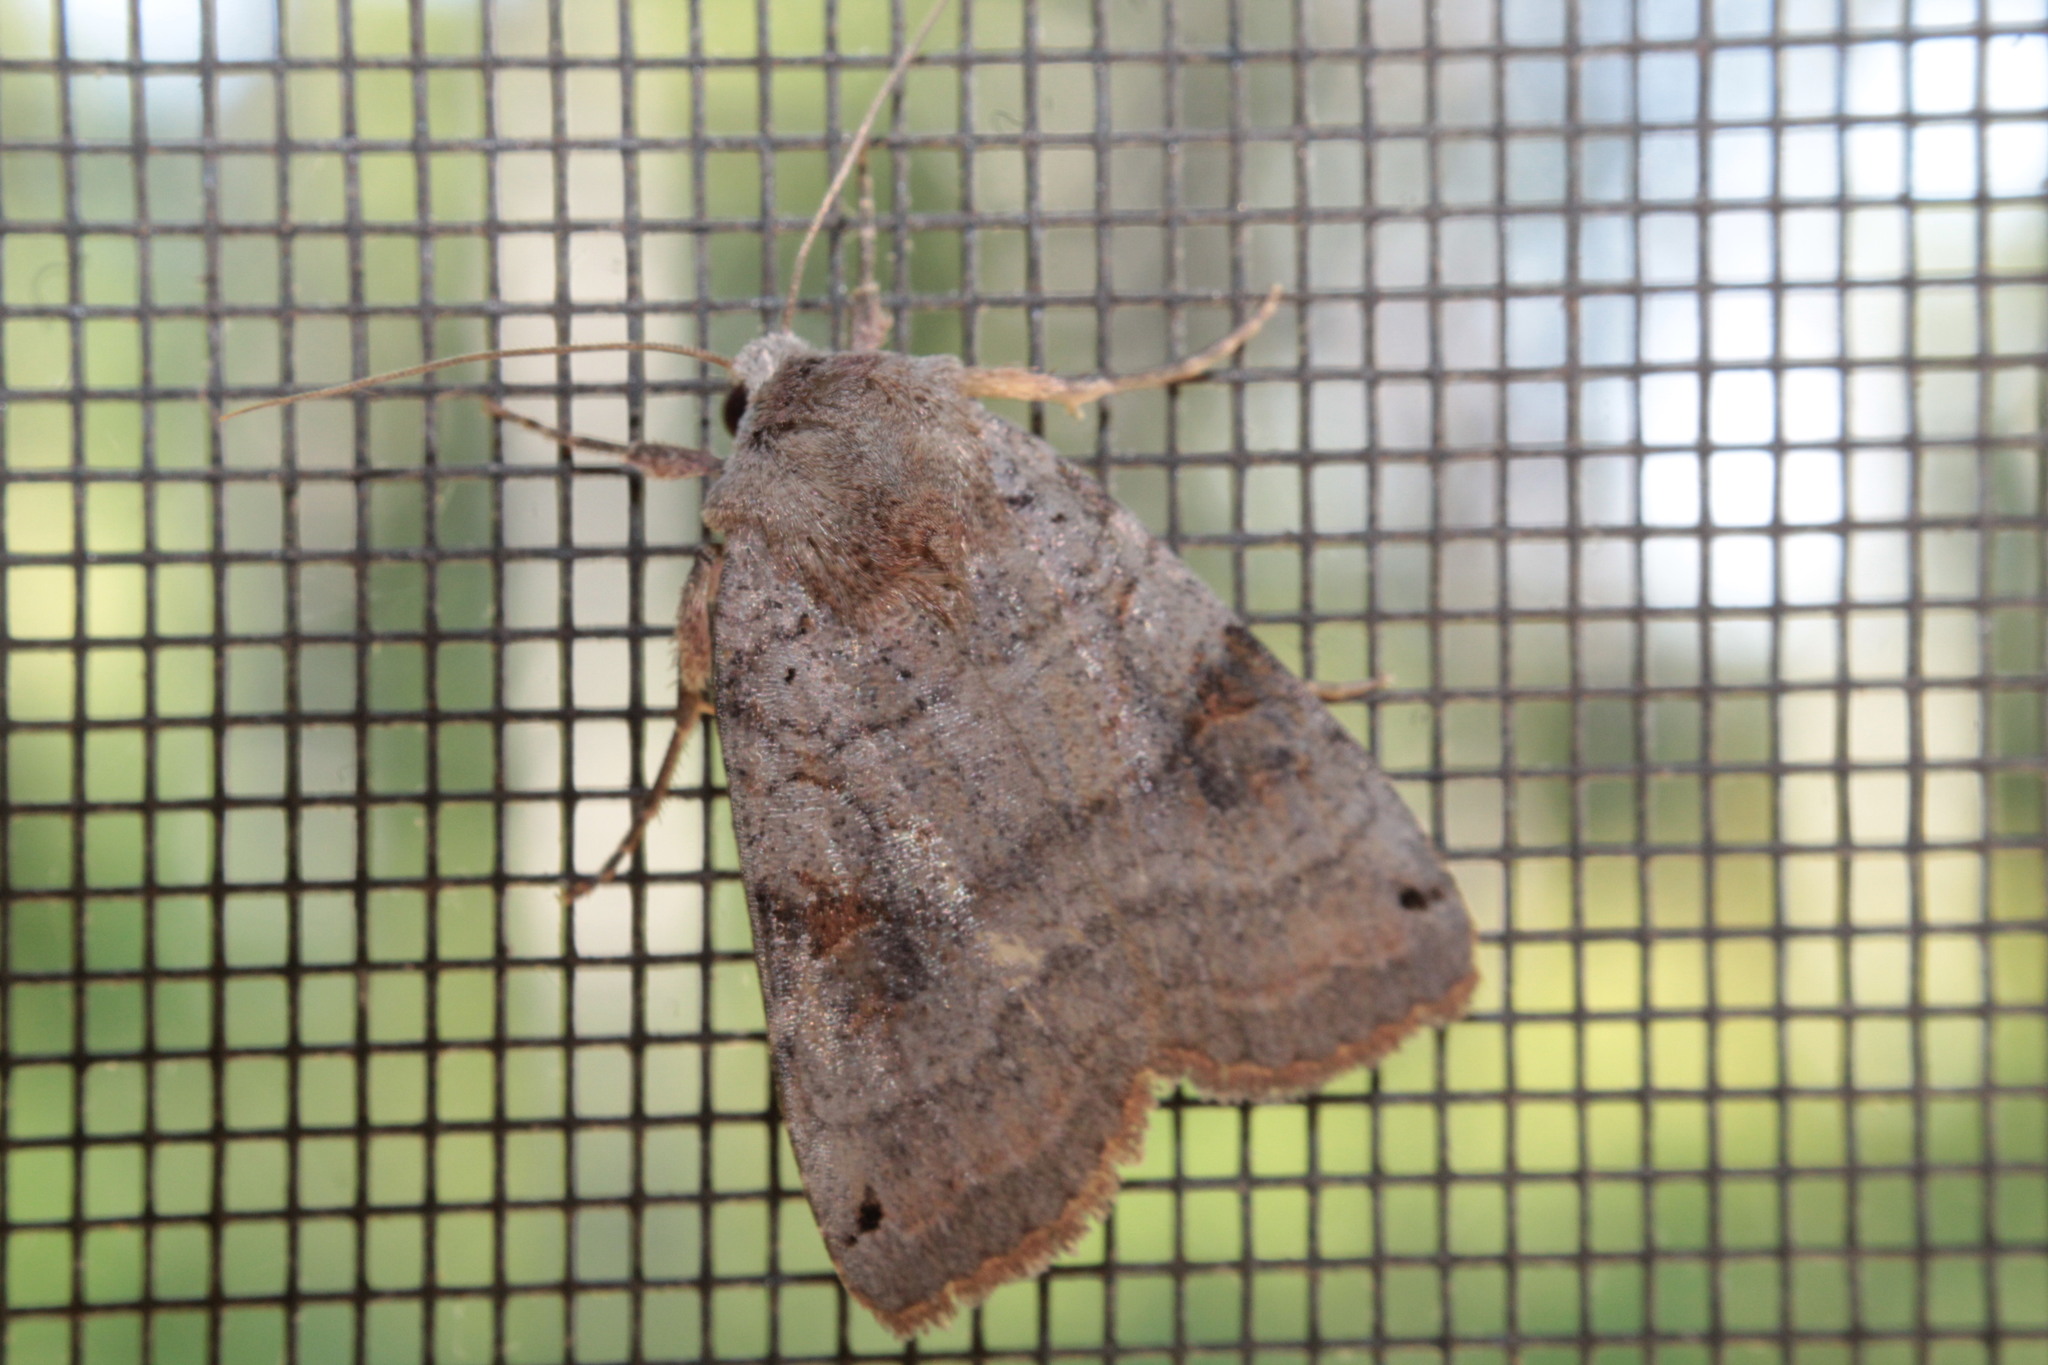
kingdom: Animalia
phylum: Arthropoda
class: Insecta
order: Lepidoptera
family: Noctuidae
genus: Xestia
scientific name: Xestia smithii
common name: Smith's dart
